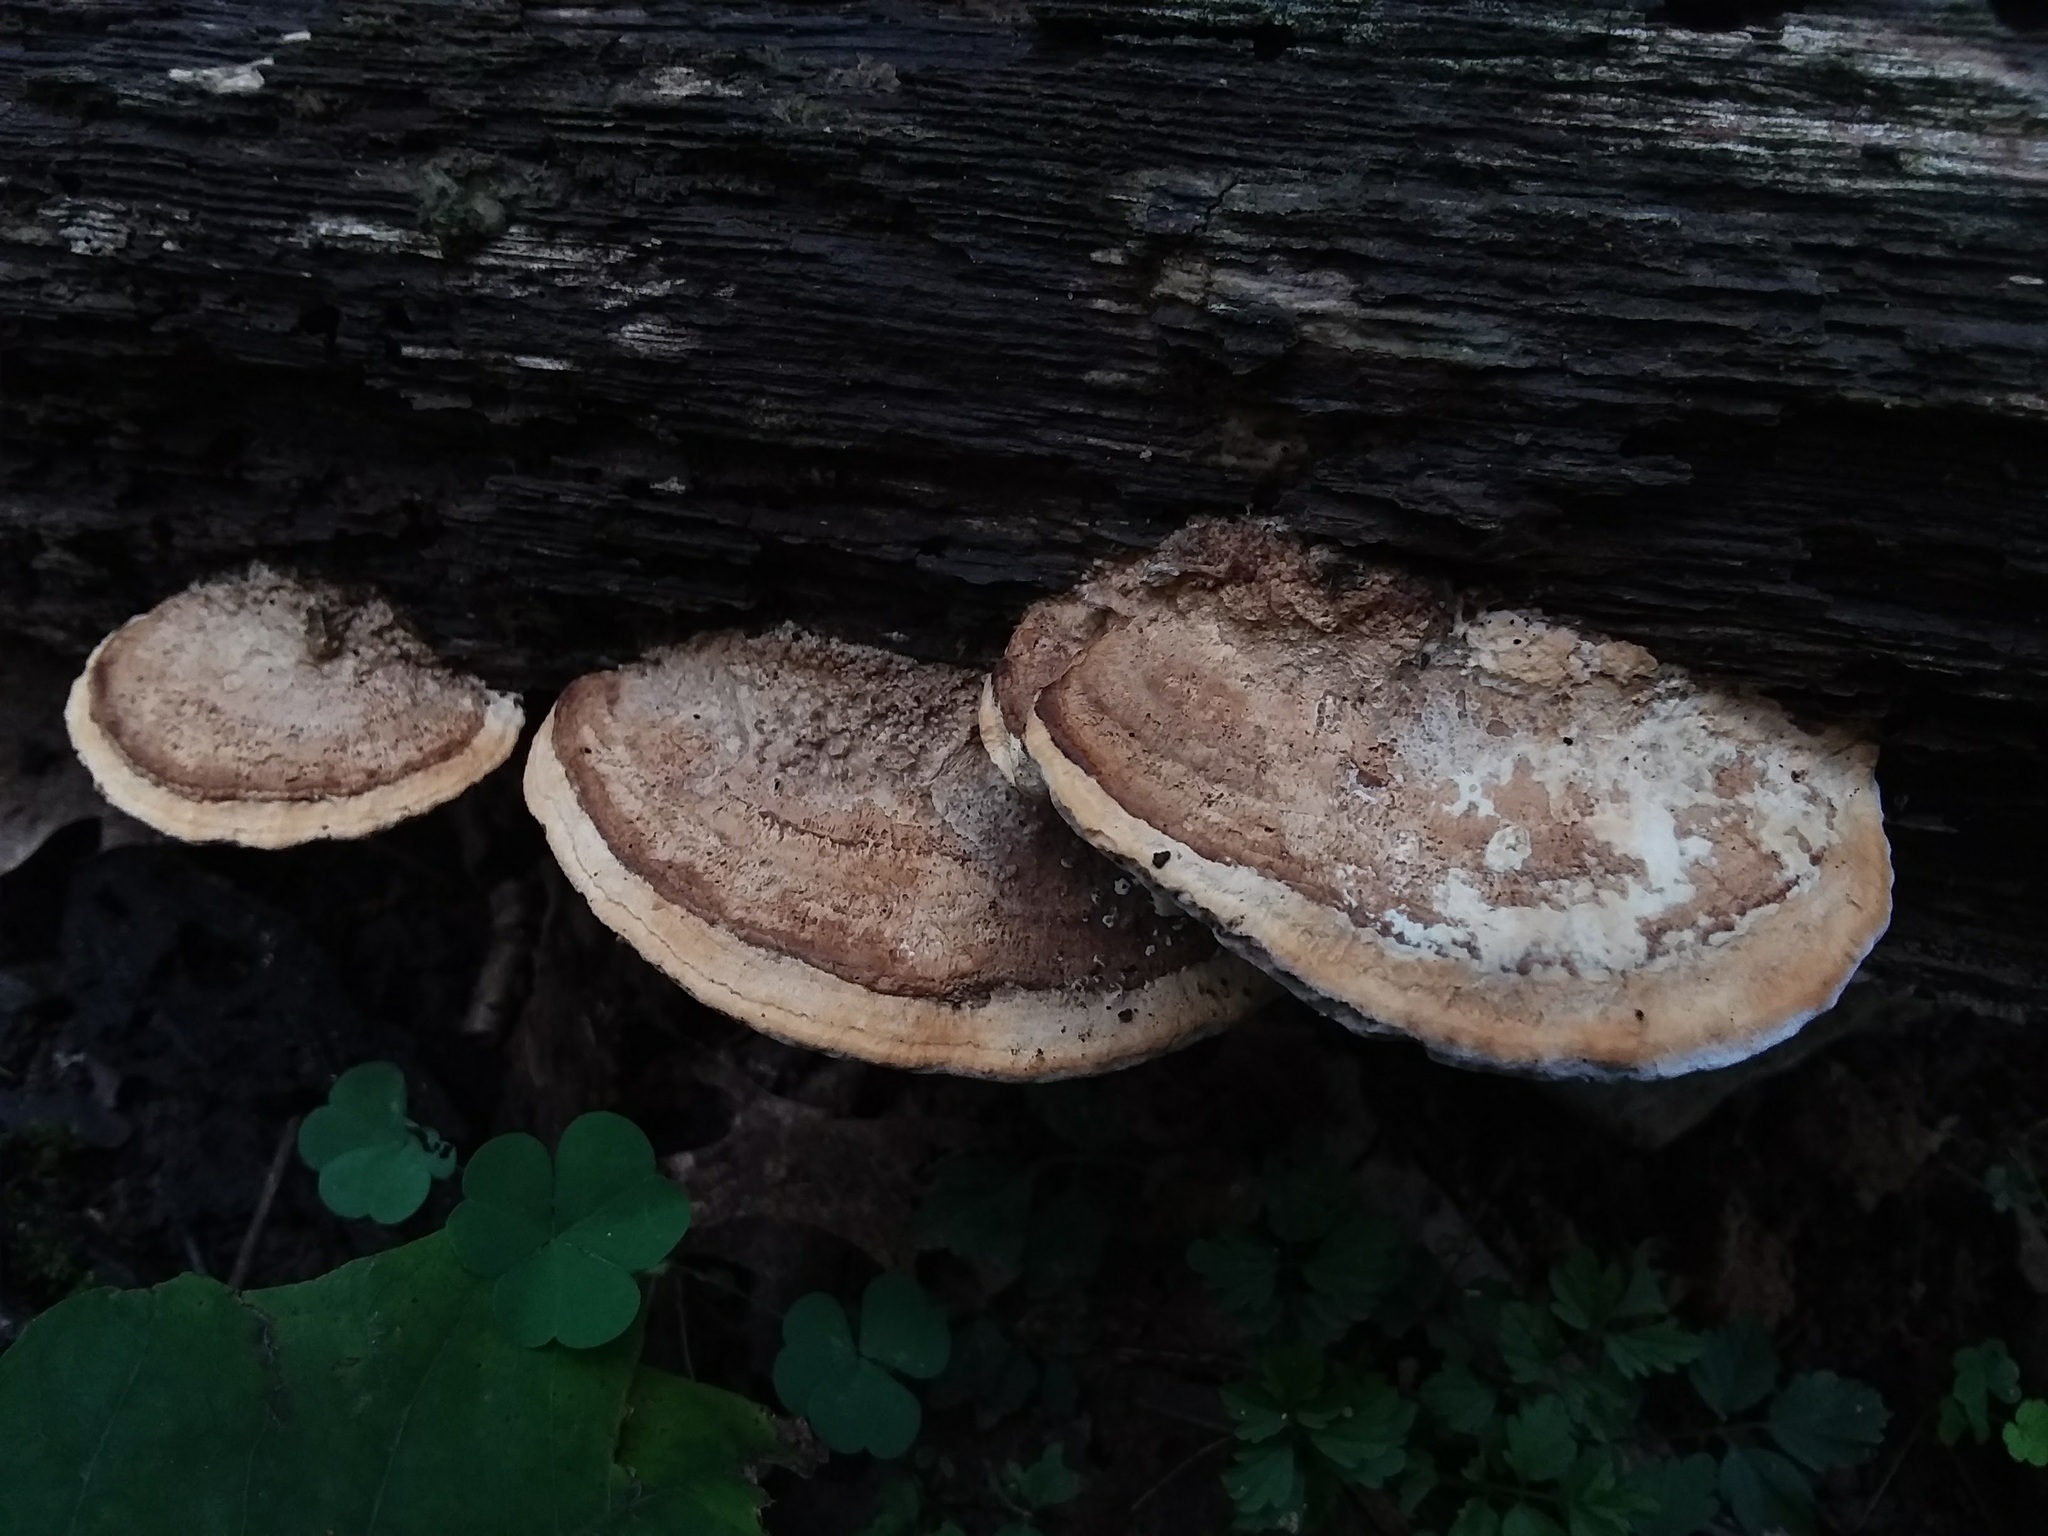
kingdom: Fungi
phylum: Basidiomycota
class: Agaricomycetes
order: Polyporales
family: Fomitopsidaceae
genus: Fomitopsis
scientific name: Fomitopsis
